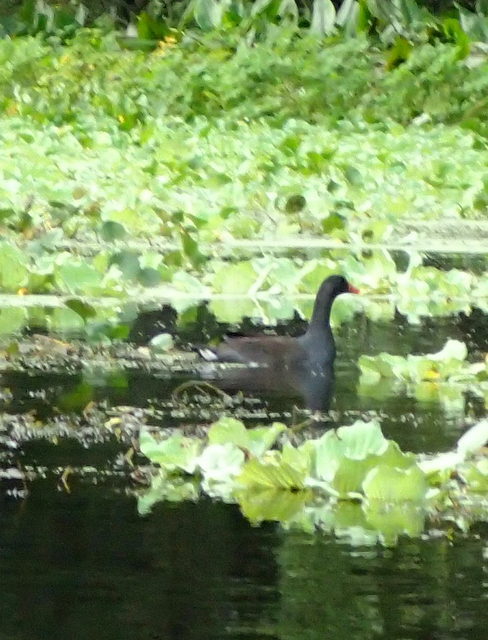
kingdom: Animalia
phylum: Chordata
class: Aves
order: Gruiformes
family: Rallidae
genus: Gallinula
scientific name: Gallinula chloropus
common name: Common moorhen
